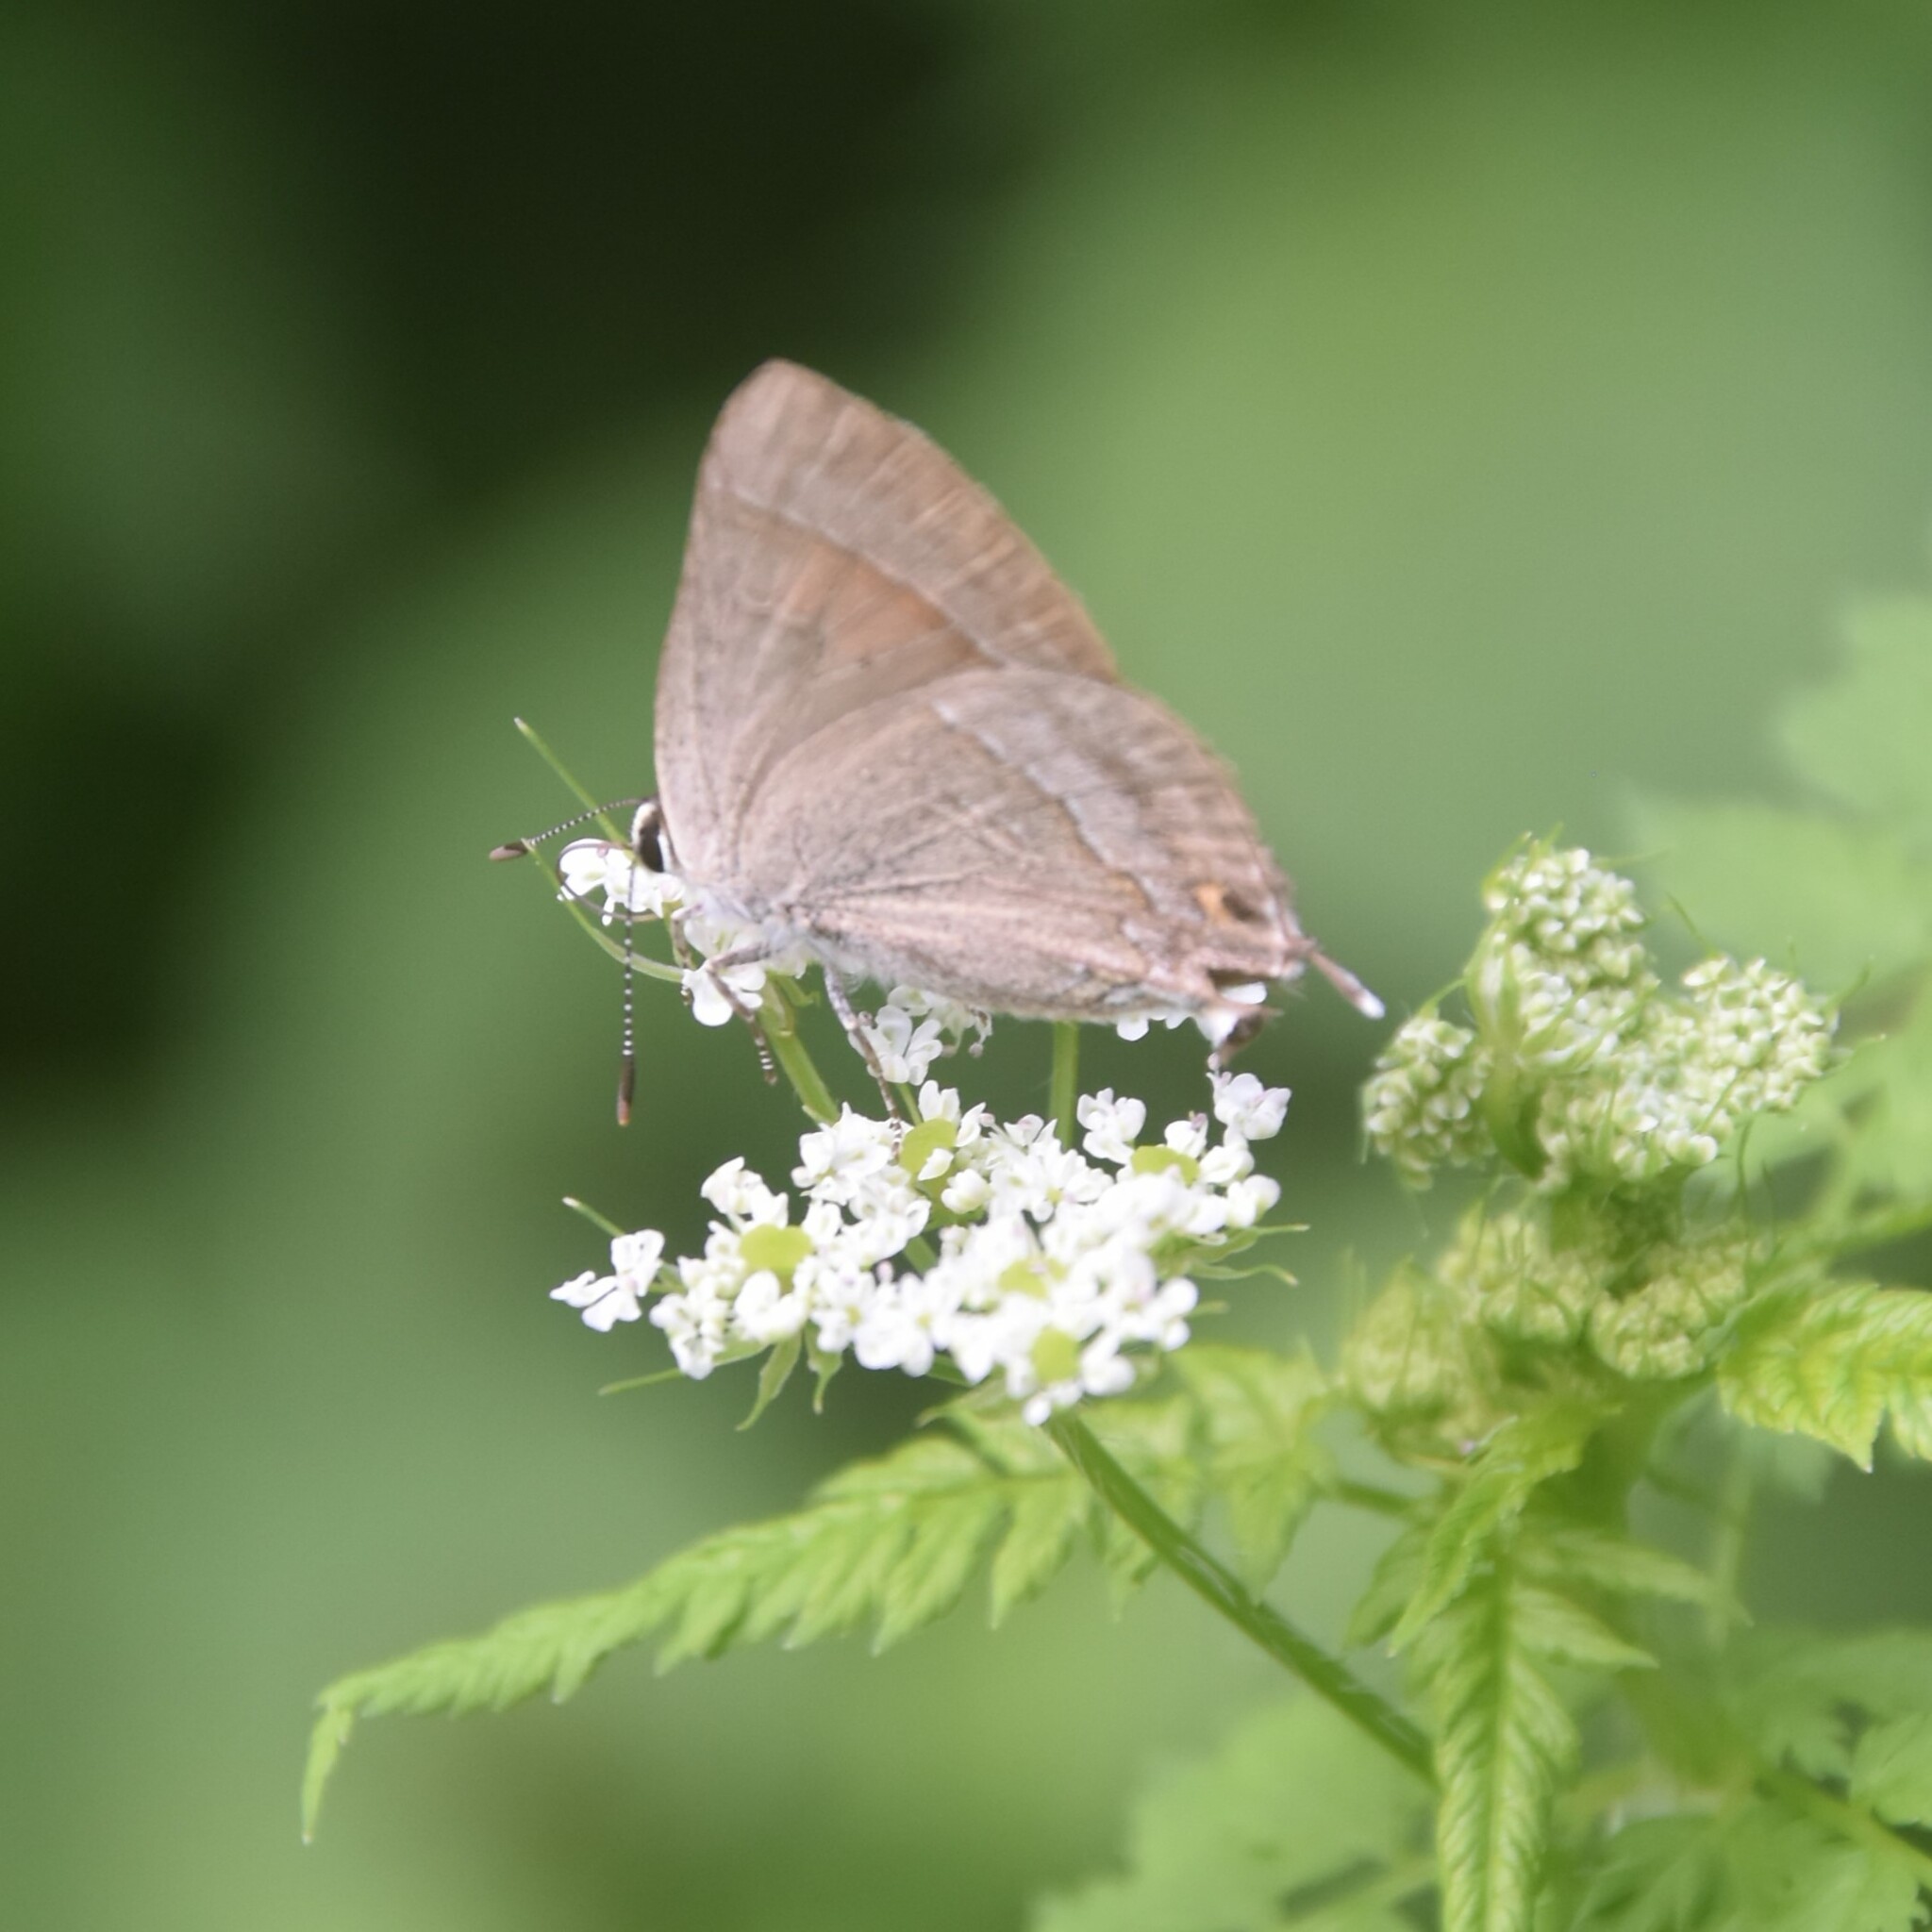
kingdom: Animalia
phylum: Arthropoda
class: Insecta
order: Lepidoptera
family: Lycaenidae
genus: Rapala
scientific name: Rapala selira
